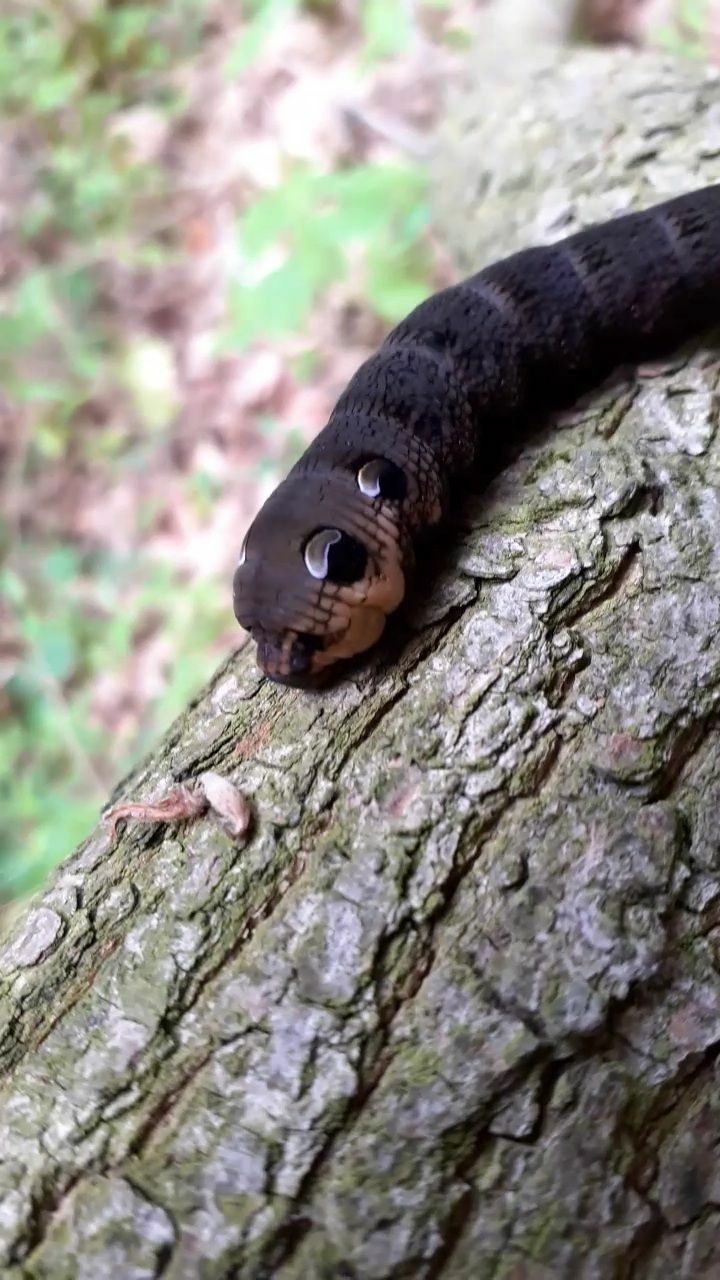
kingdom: Animalia
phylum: Arthropoda
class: Insecta
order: Lepidoptera
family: Sphingidae
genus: Deilephila
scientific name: Deilephila elpenor
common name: Elephant hawk-moth
